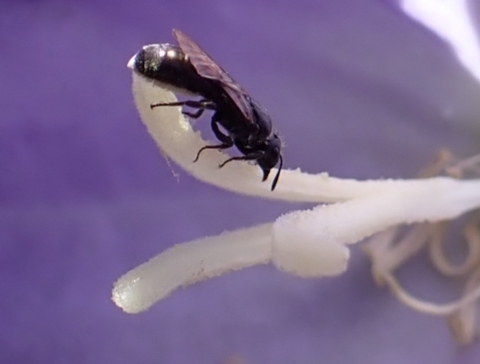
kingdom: Animalia
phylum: Arthropoda
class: Insecta
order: Hymenoptera
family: Megachilidae
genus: Chelostoma
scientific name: Chelostoma campanularum
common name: Small scissor bee
